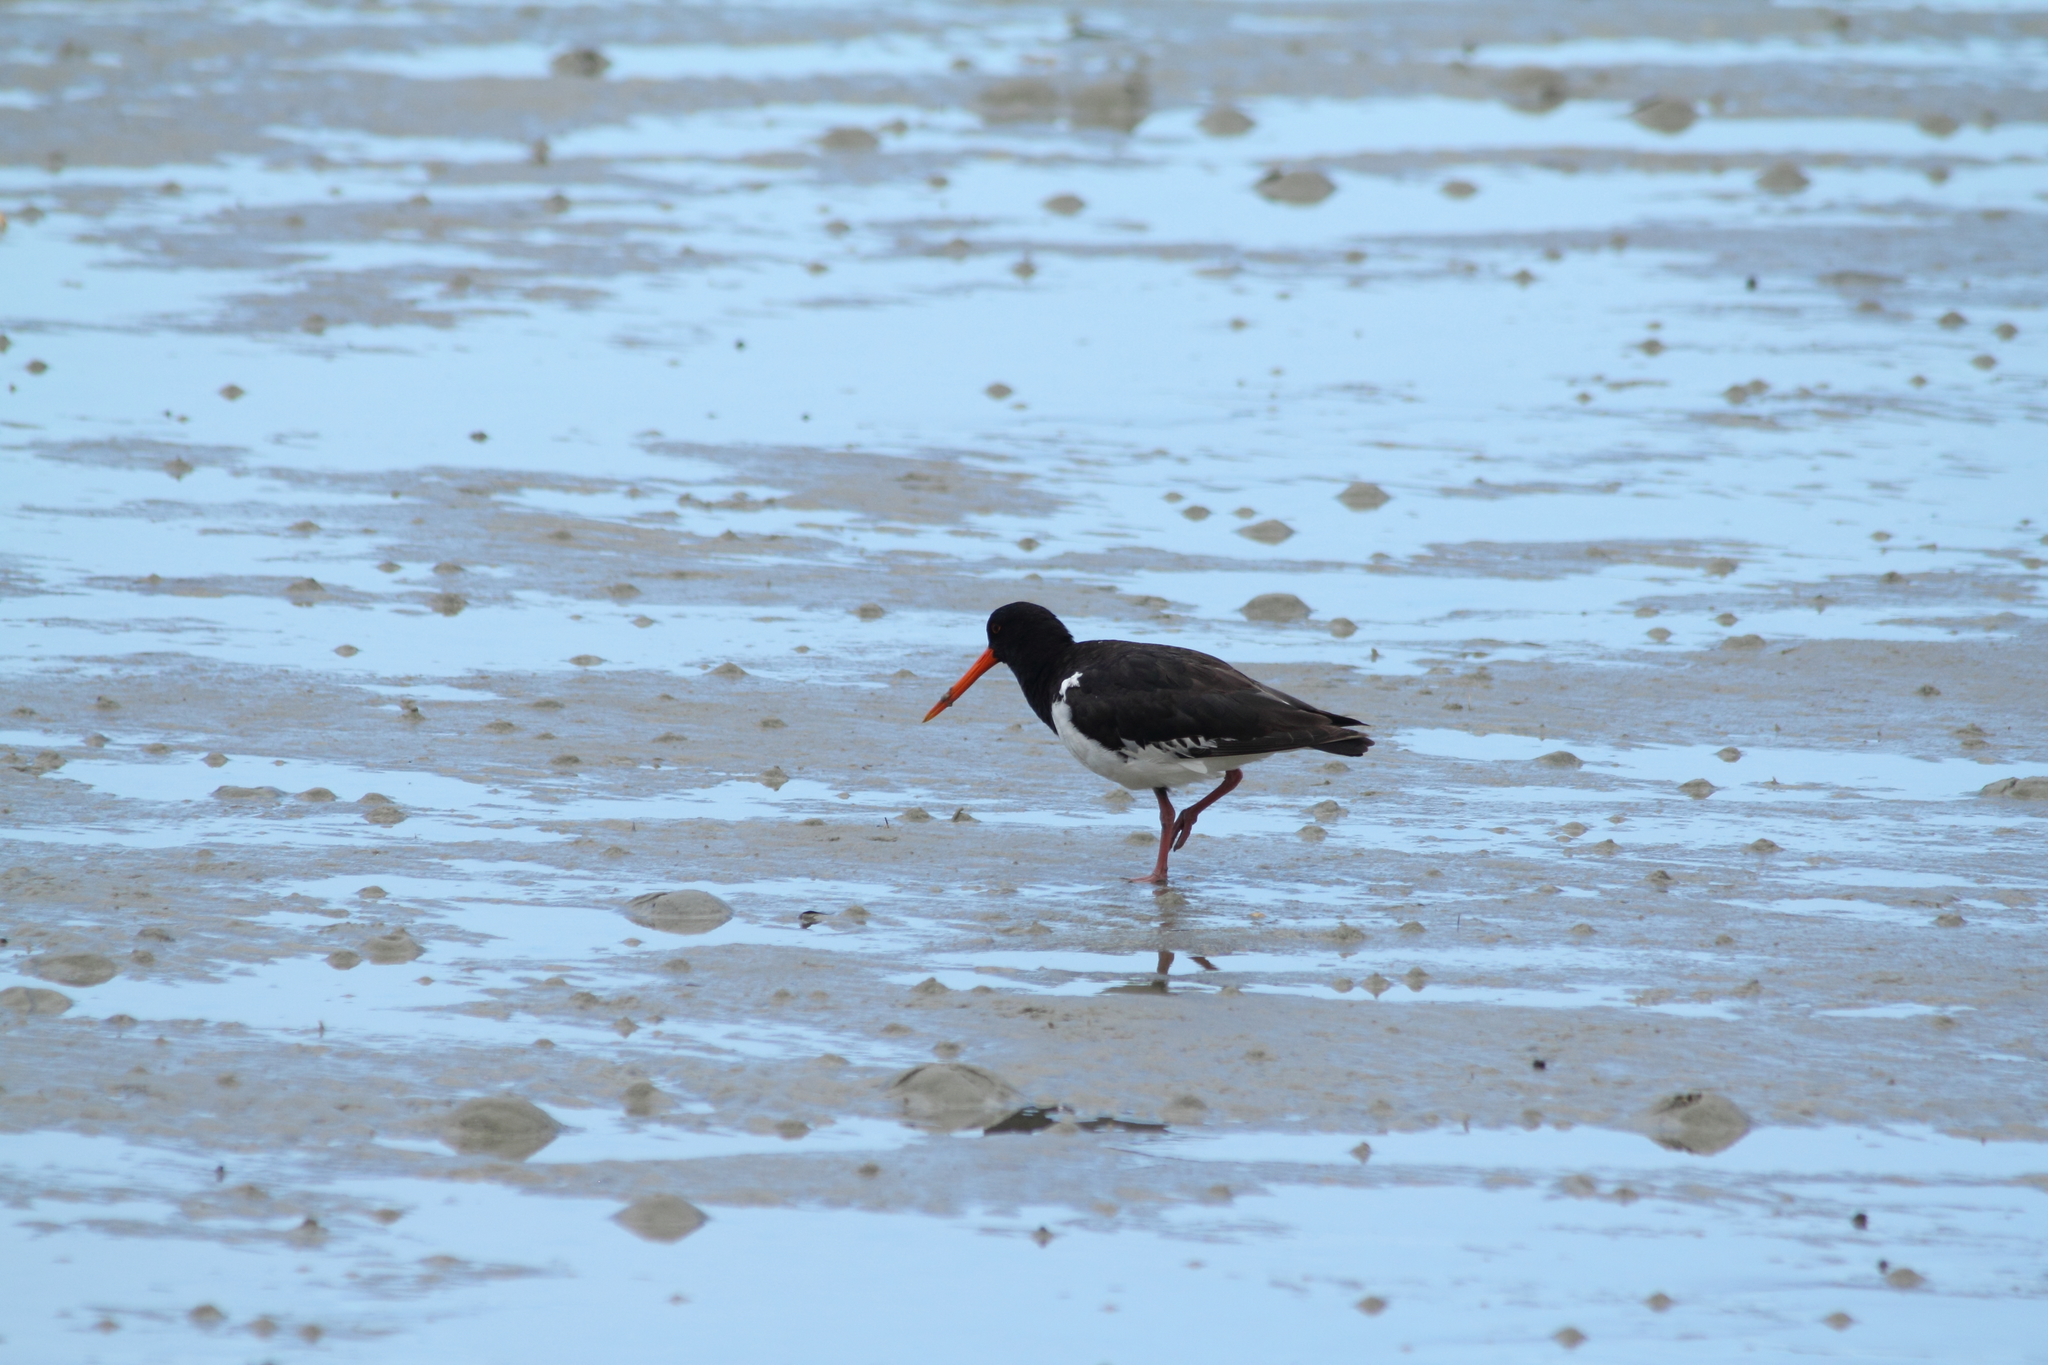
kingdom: Animalia
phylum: Chordata
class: Aves
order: Charadriiformes
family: Haematopodidae
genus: Haematopus
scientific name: Haematopus finschi
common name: South island oystercatcher
